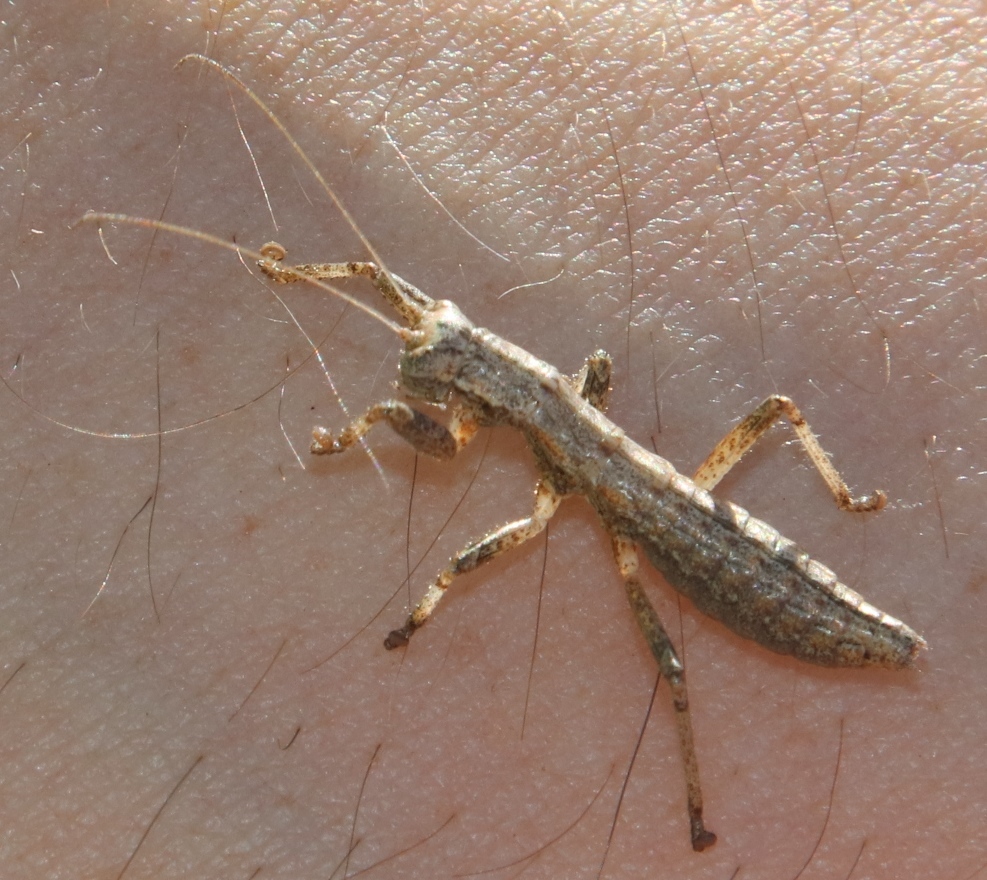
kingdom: Animalia
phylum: Arthropoda
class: Insecta
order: Mantophasmatodea
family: Mantophasmatidae
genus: Karoophasma
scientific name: Karoophasma biedouwensis
